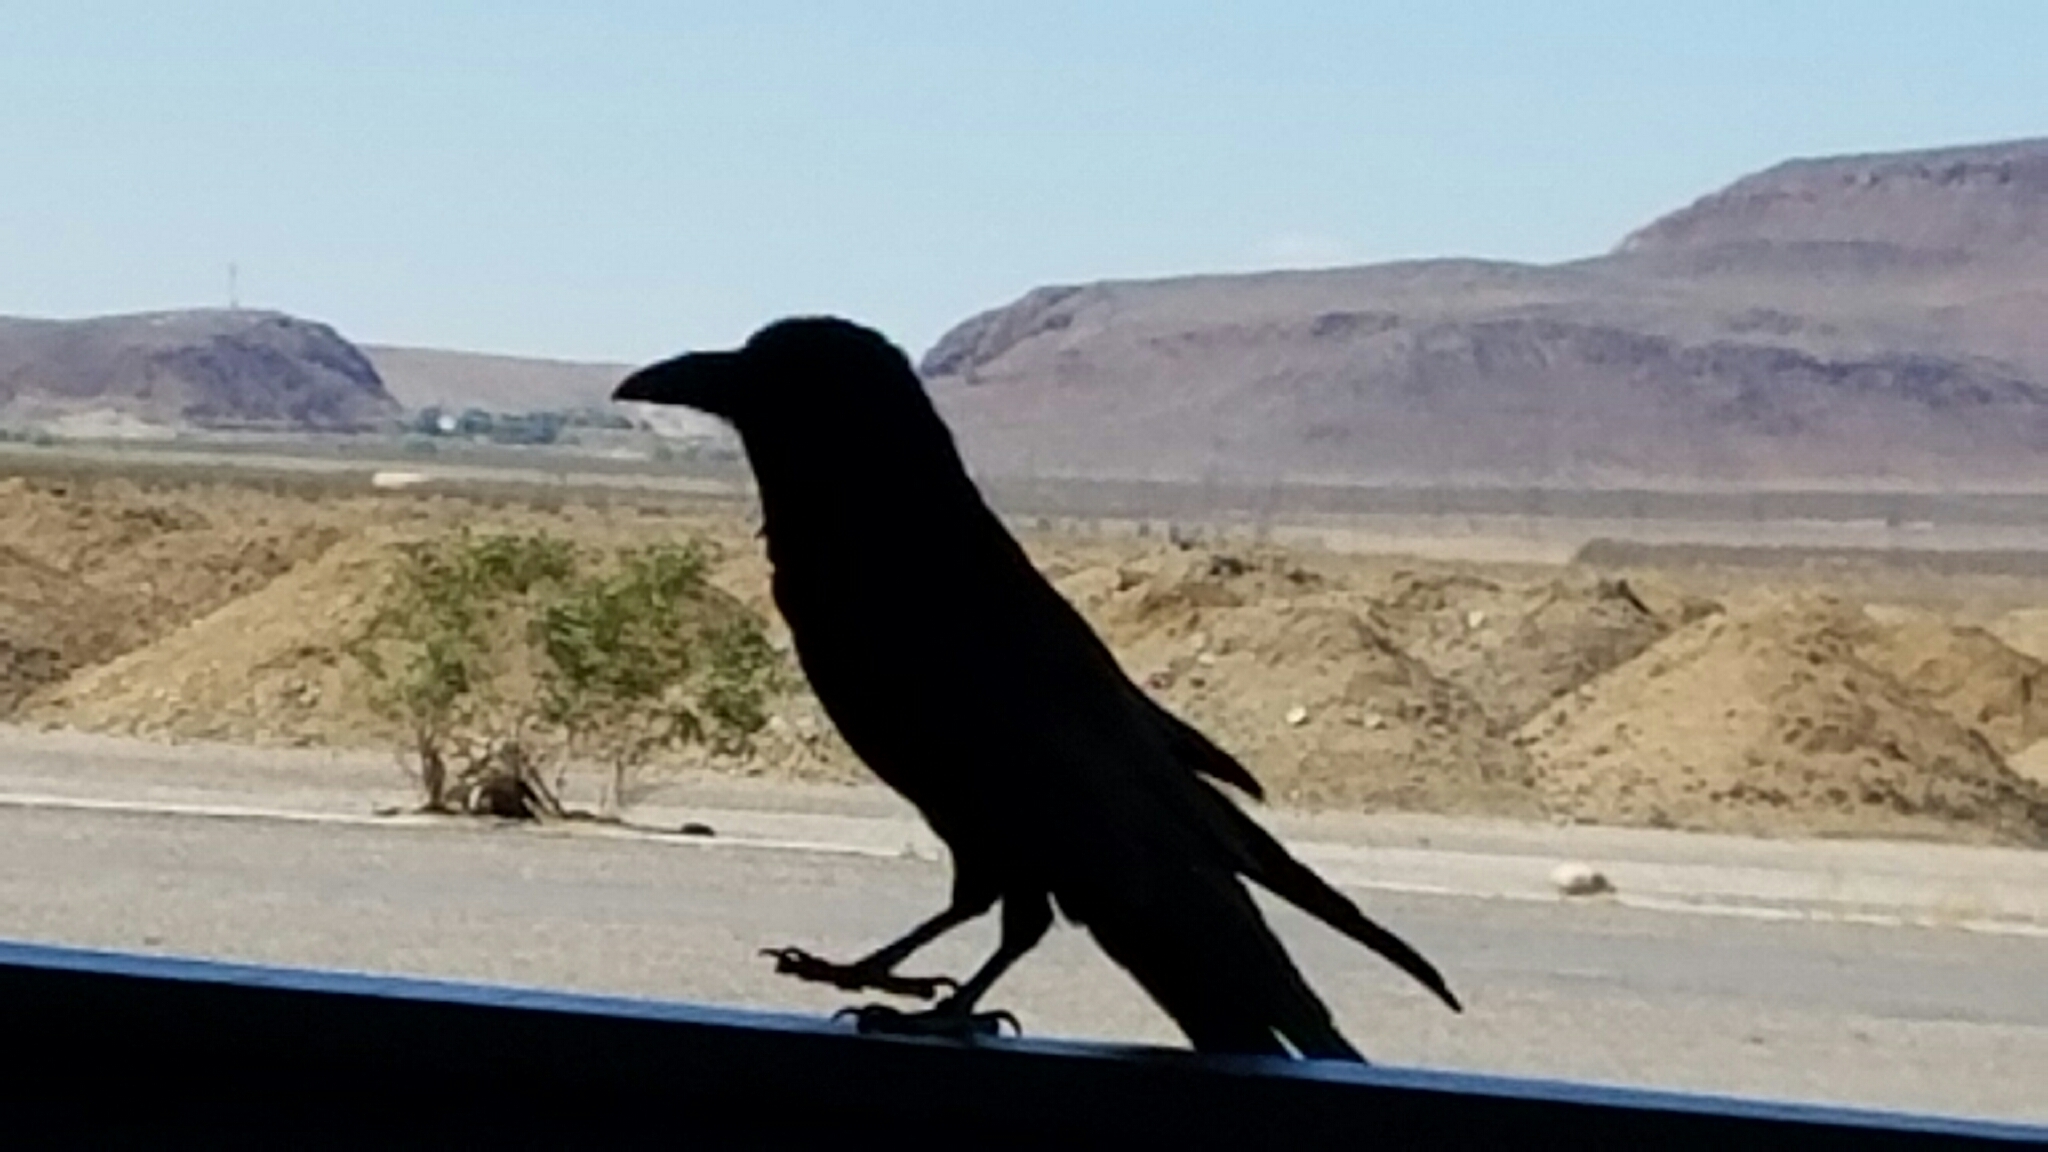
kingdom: Animalia
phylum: Chordata
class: Aves
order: Passeriformes
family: Corvidae
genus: Corvus
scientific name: Corvus corax
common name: Common raven
